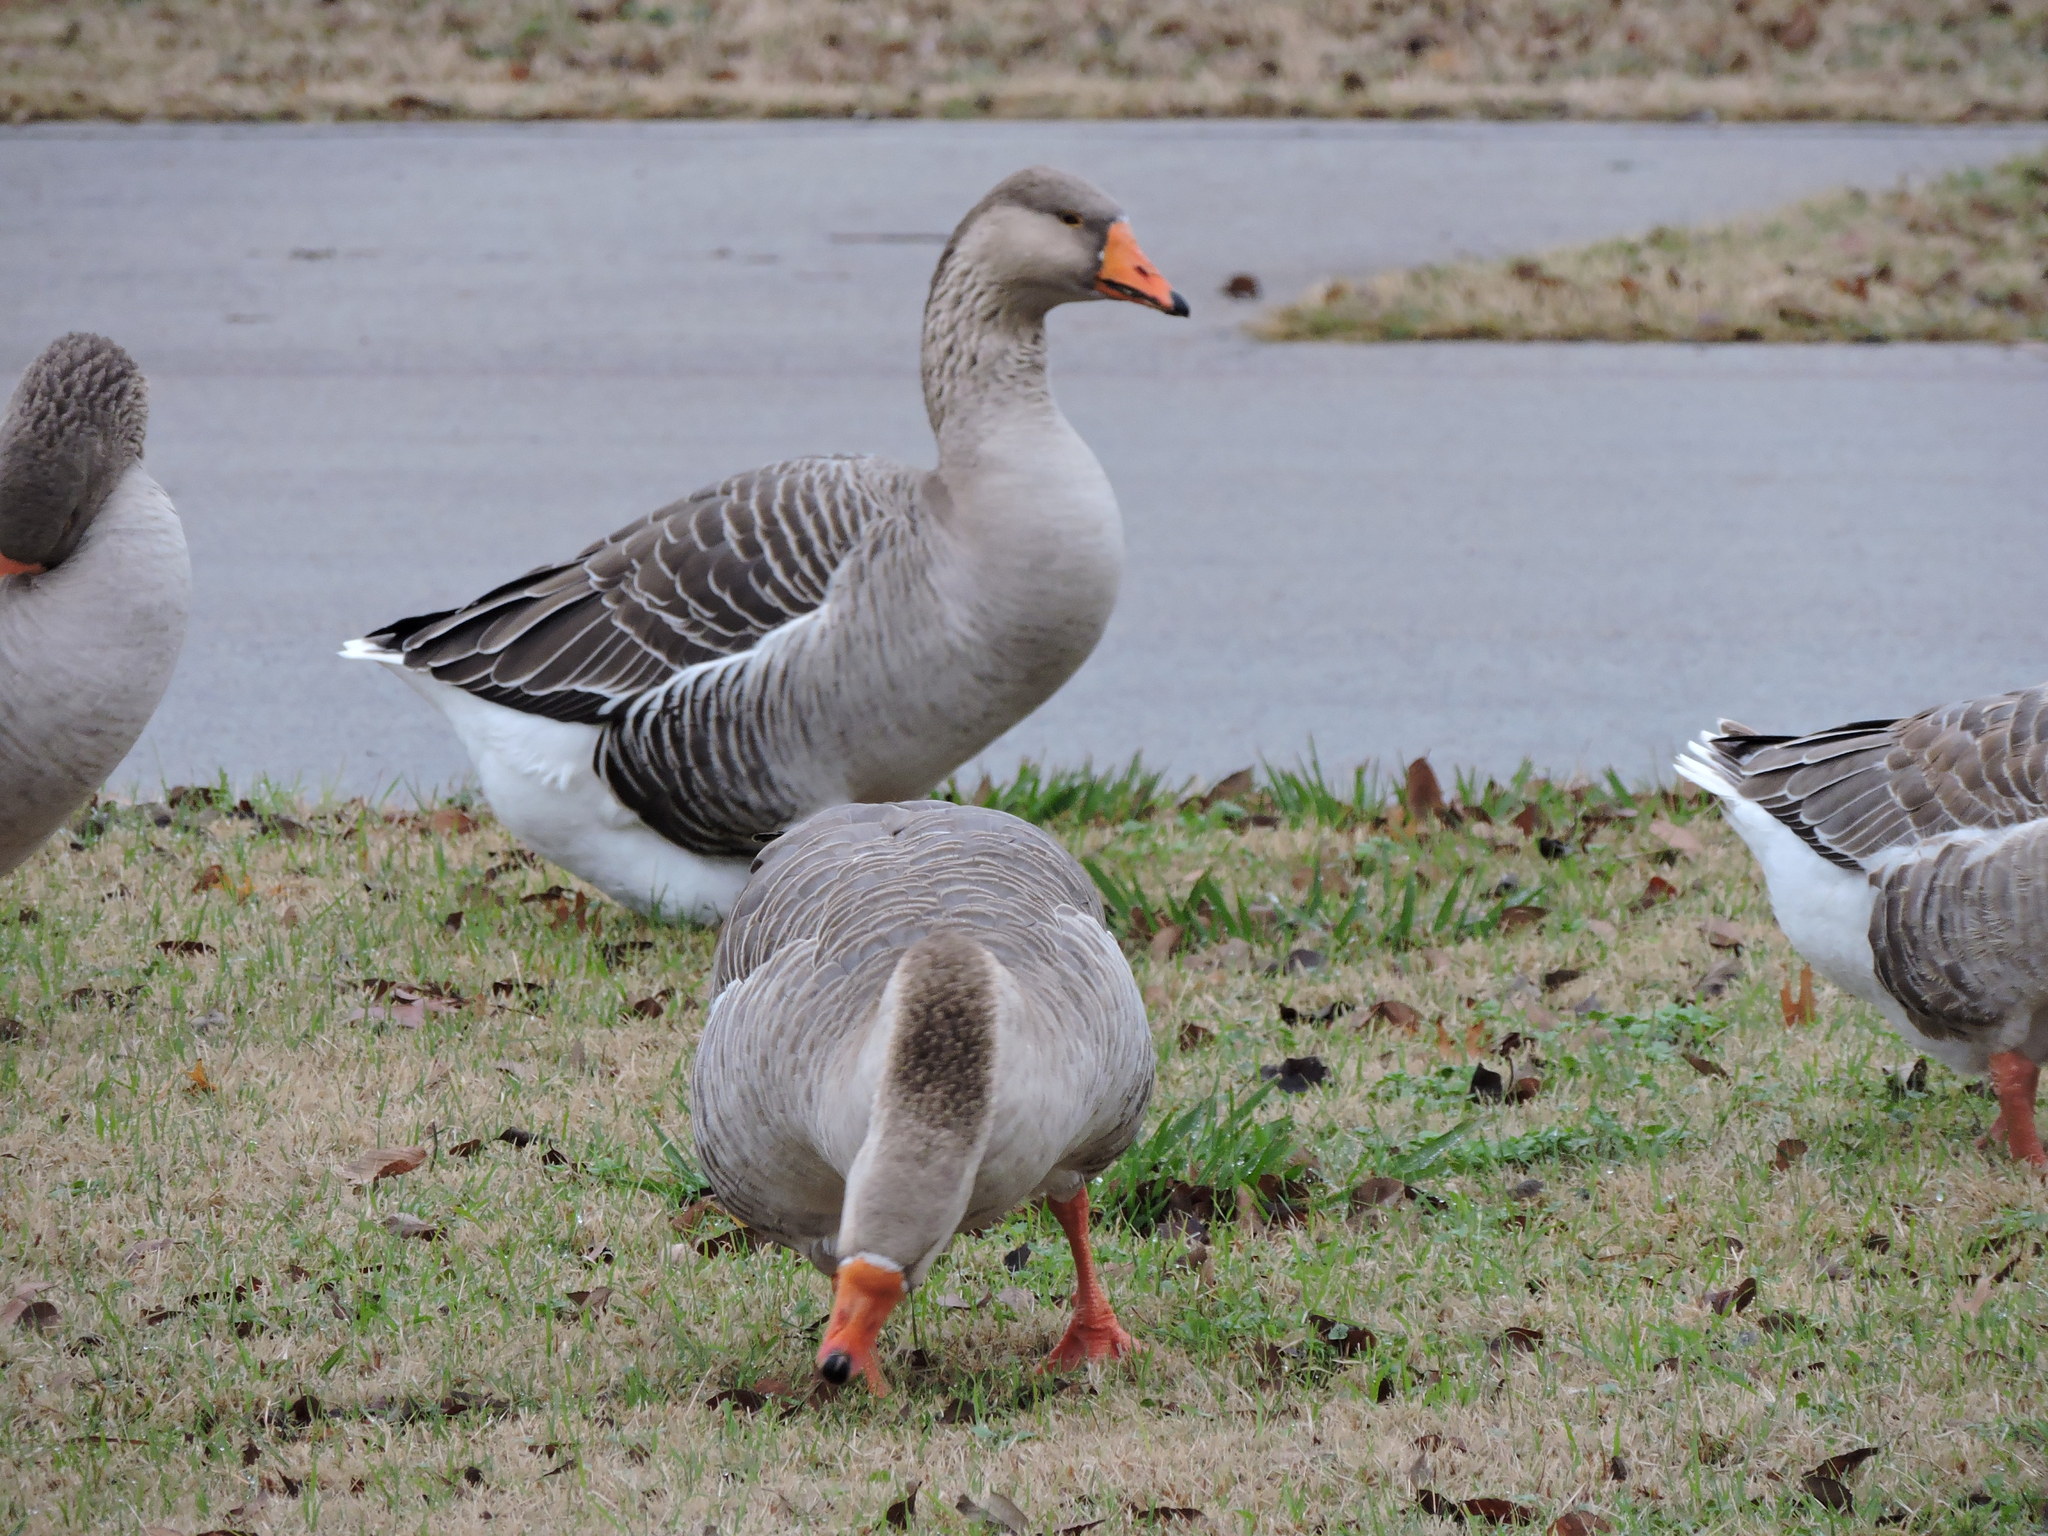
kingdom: Animalia
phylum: Chordata
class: Aves
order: Anseriformes
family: Anatidae
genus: Anser
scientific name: Anser
